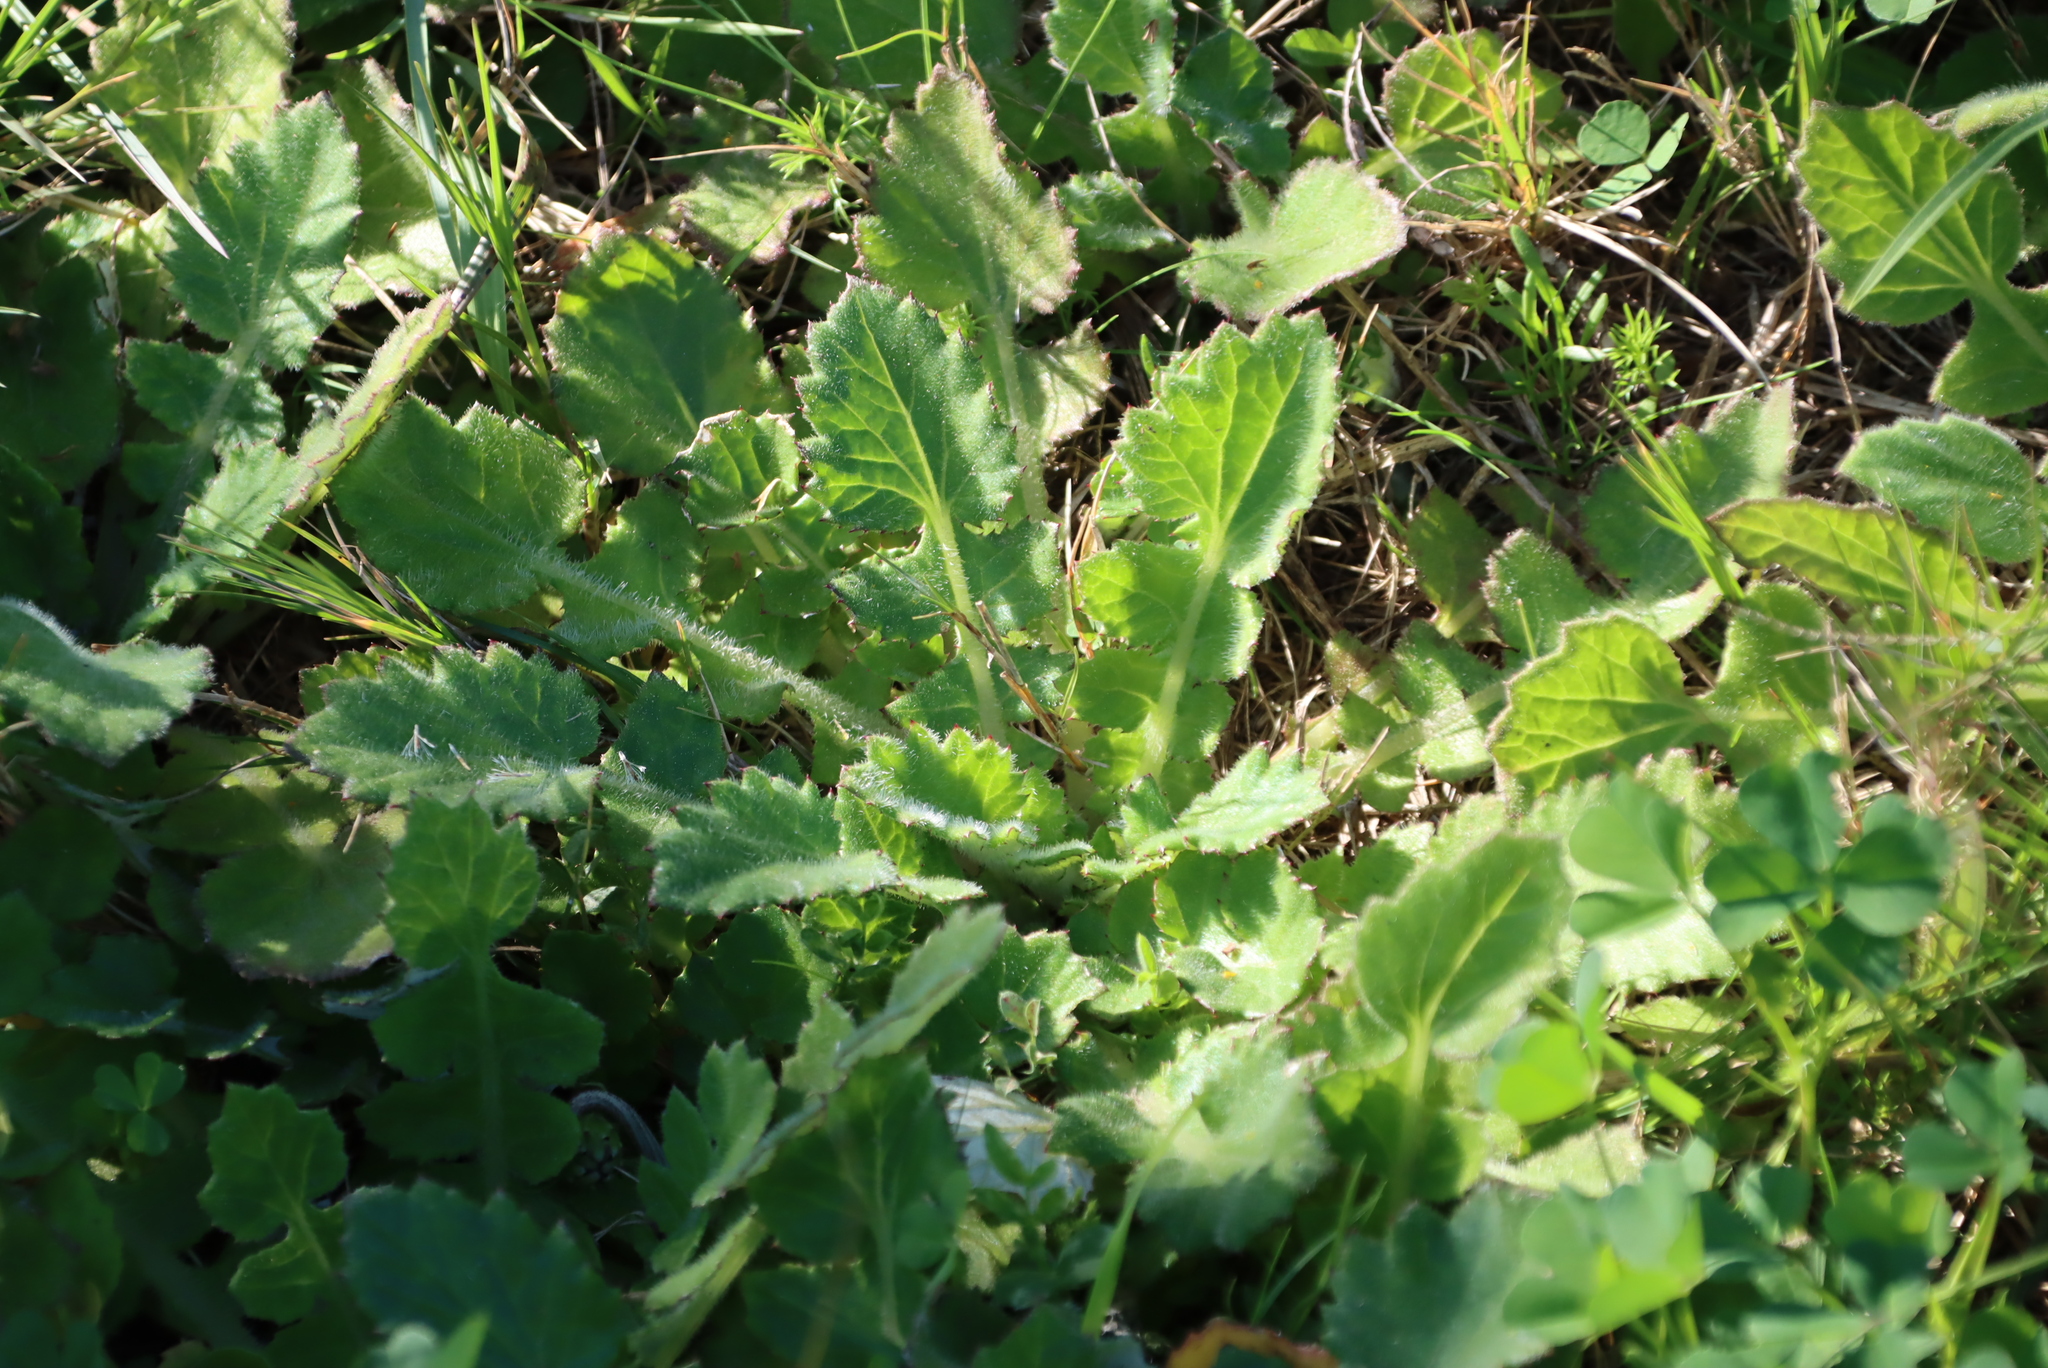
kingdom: Plantae
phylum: Tracheophyta
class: Magnoliopsida
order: Asterales
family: Asteraceae
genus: Arctotheca
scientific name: Arctotheca prostrata
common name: Capeweed
